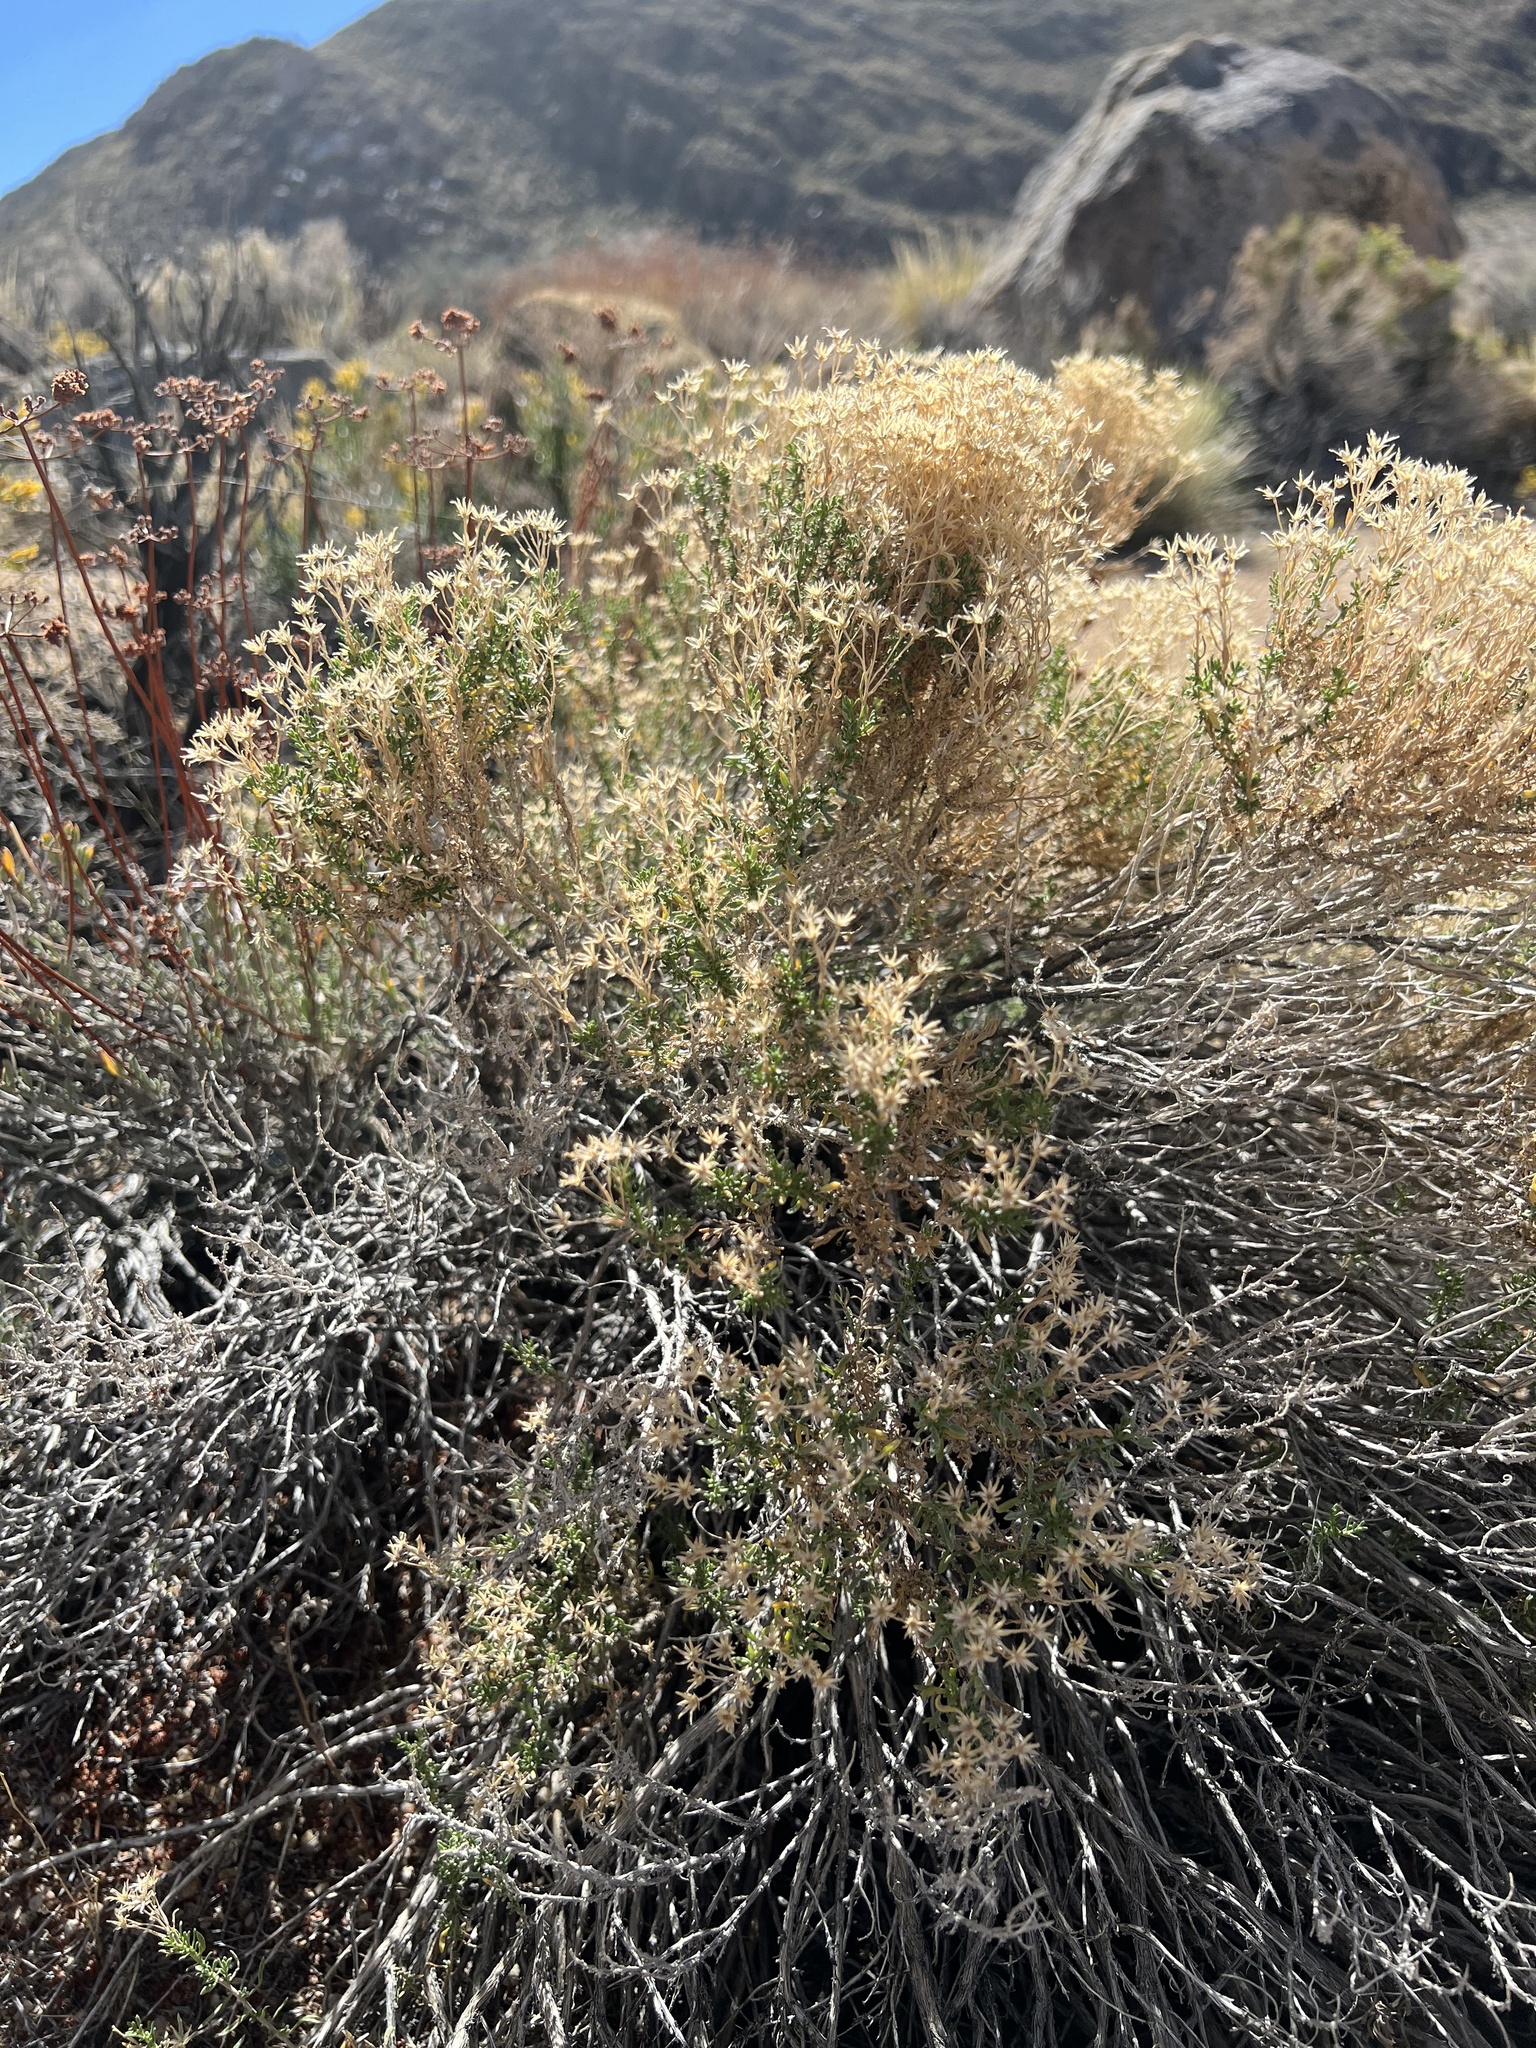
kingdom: Plantae
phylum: Tracheophyta
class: Magnoliopsida
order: Asterales
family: Asteraceae
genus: Ericameria
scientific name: Ericameria cooperi
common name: Cooper's goldenbush
